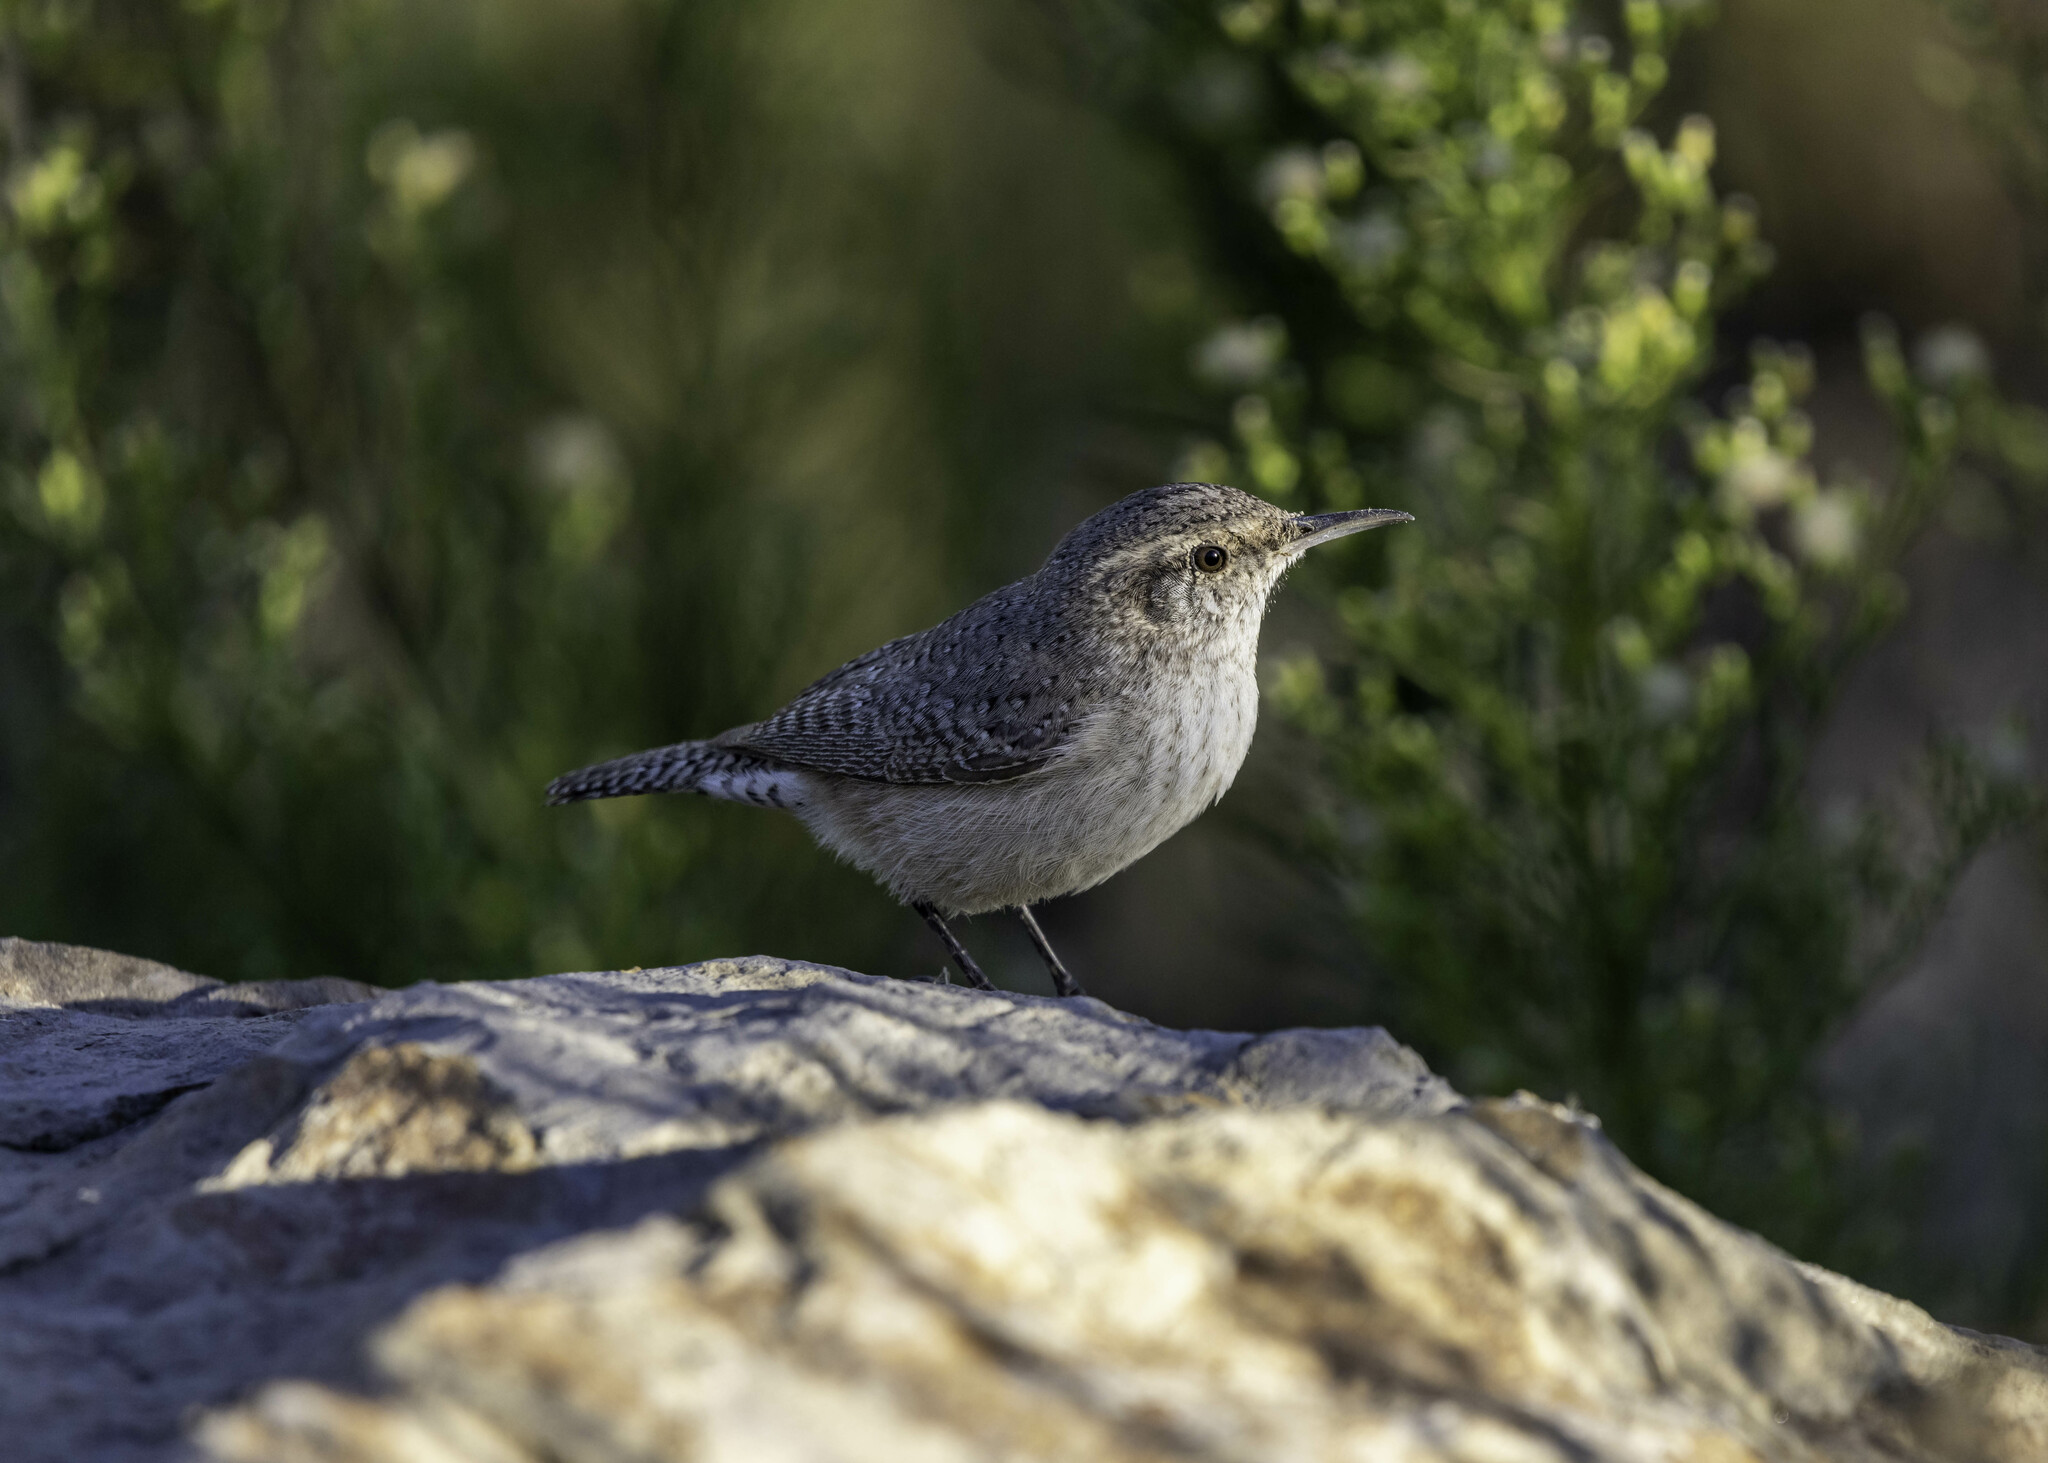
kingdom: Animalia
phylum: Chordata
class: Aves
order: Passeriformes
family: Troglodytidae
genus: Salpinctes
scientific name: Salpinctes obsoletus
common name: Rock wren
